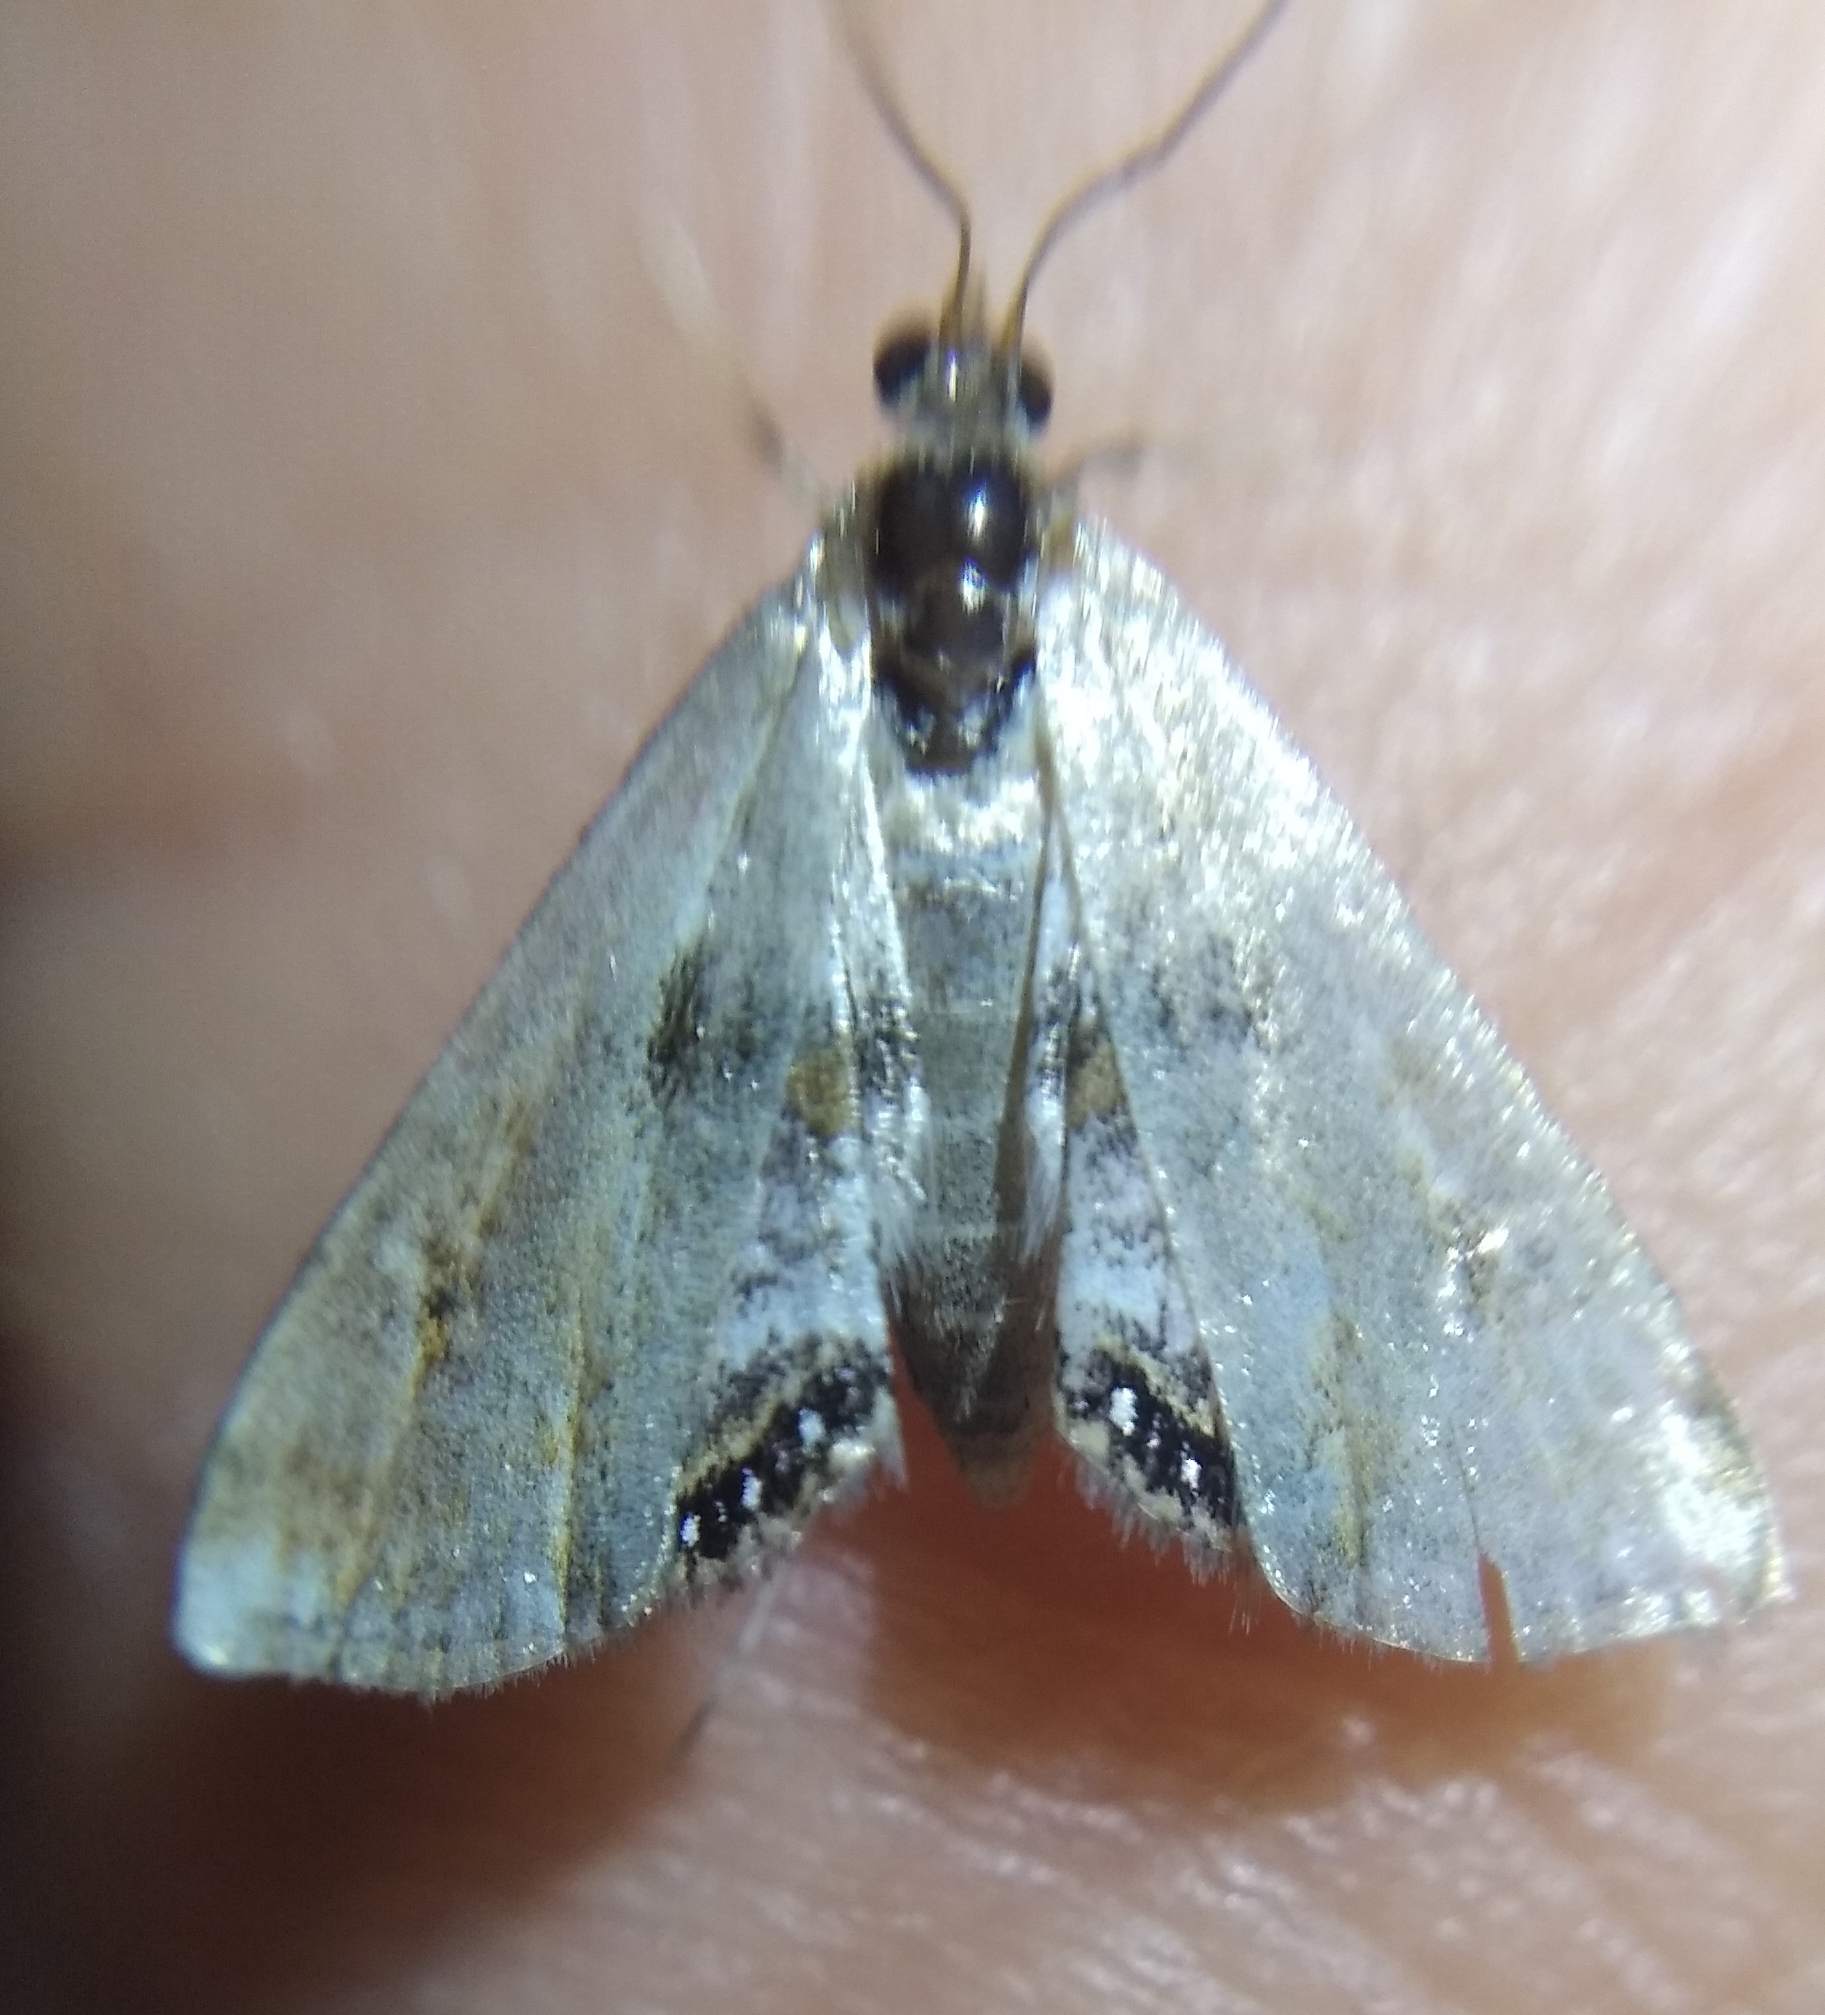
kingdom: Animalia
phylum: Arthropoda
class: Insecta
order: Lepidoptera
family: Crambidae
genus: Cataclysta
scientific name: Cataclysta lemnata
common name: Small china-mark
